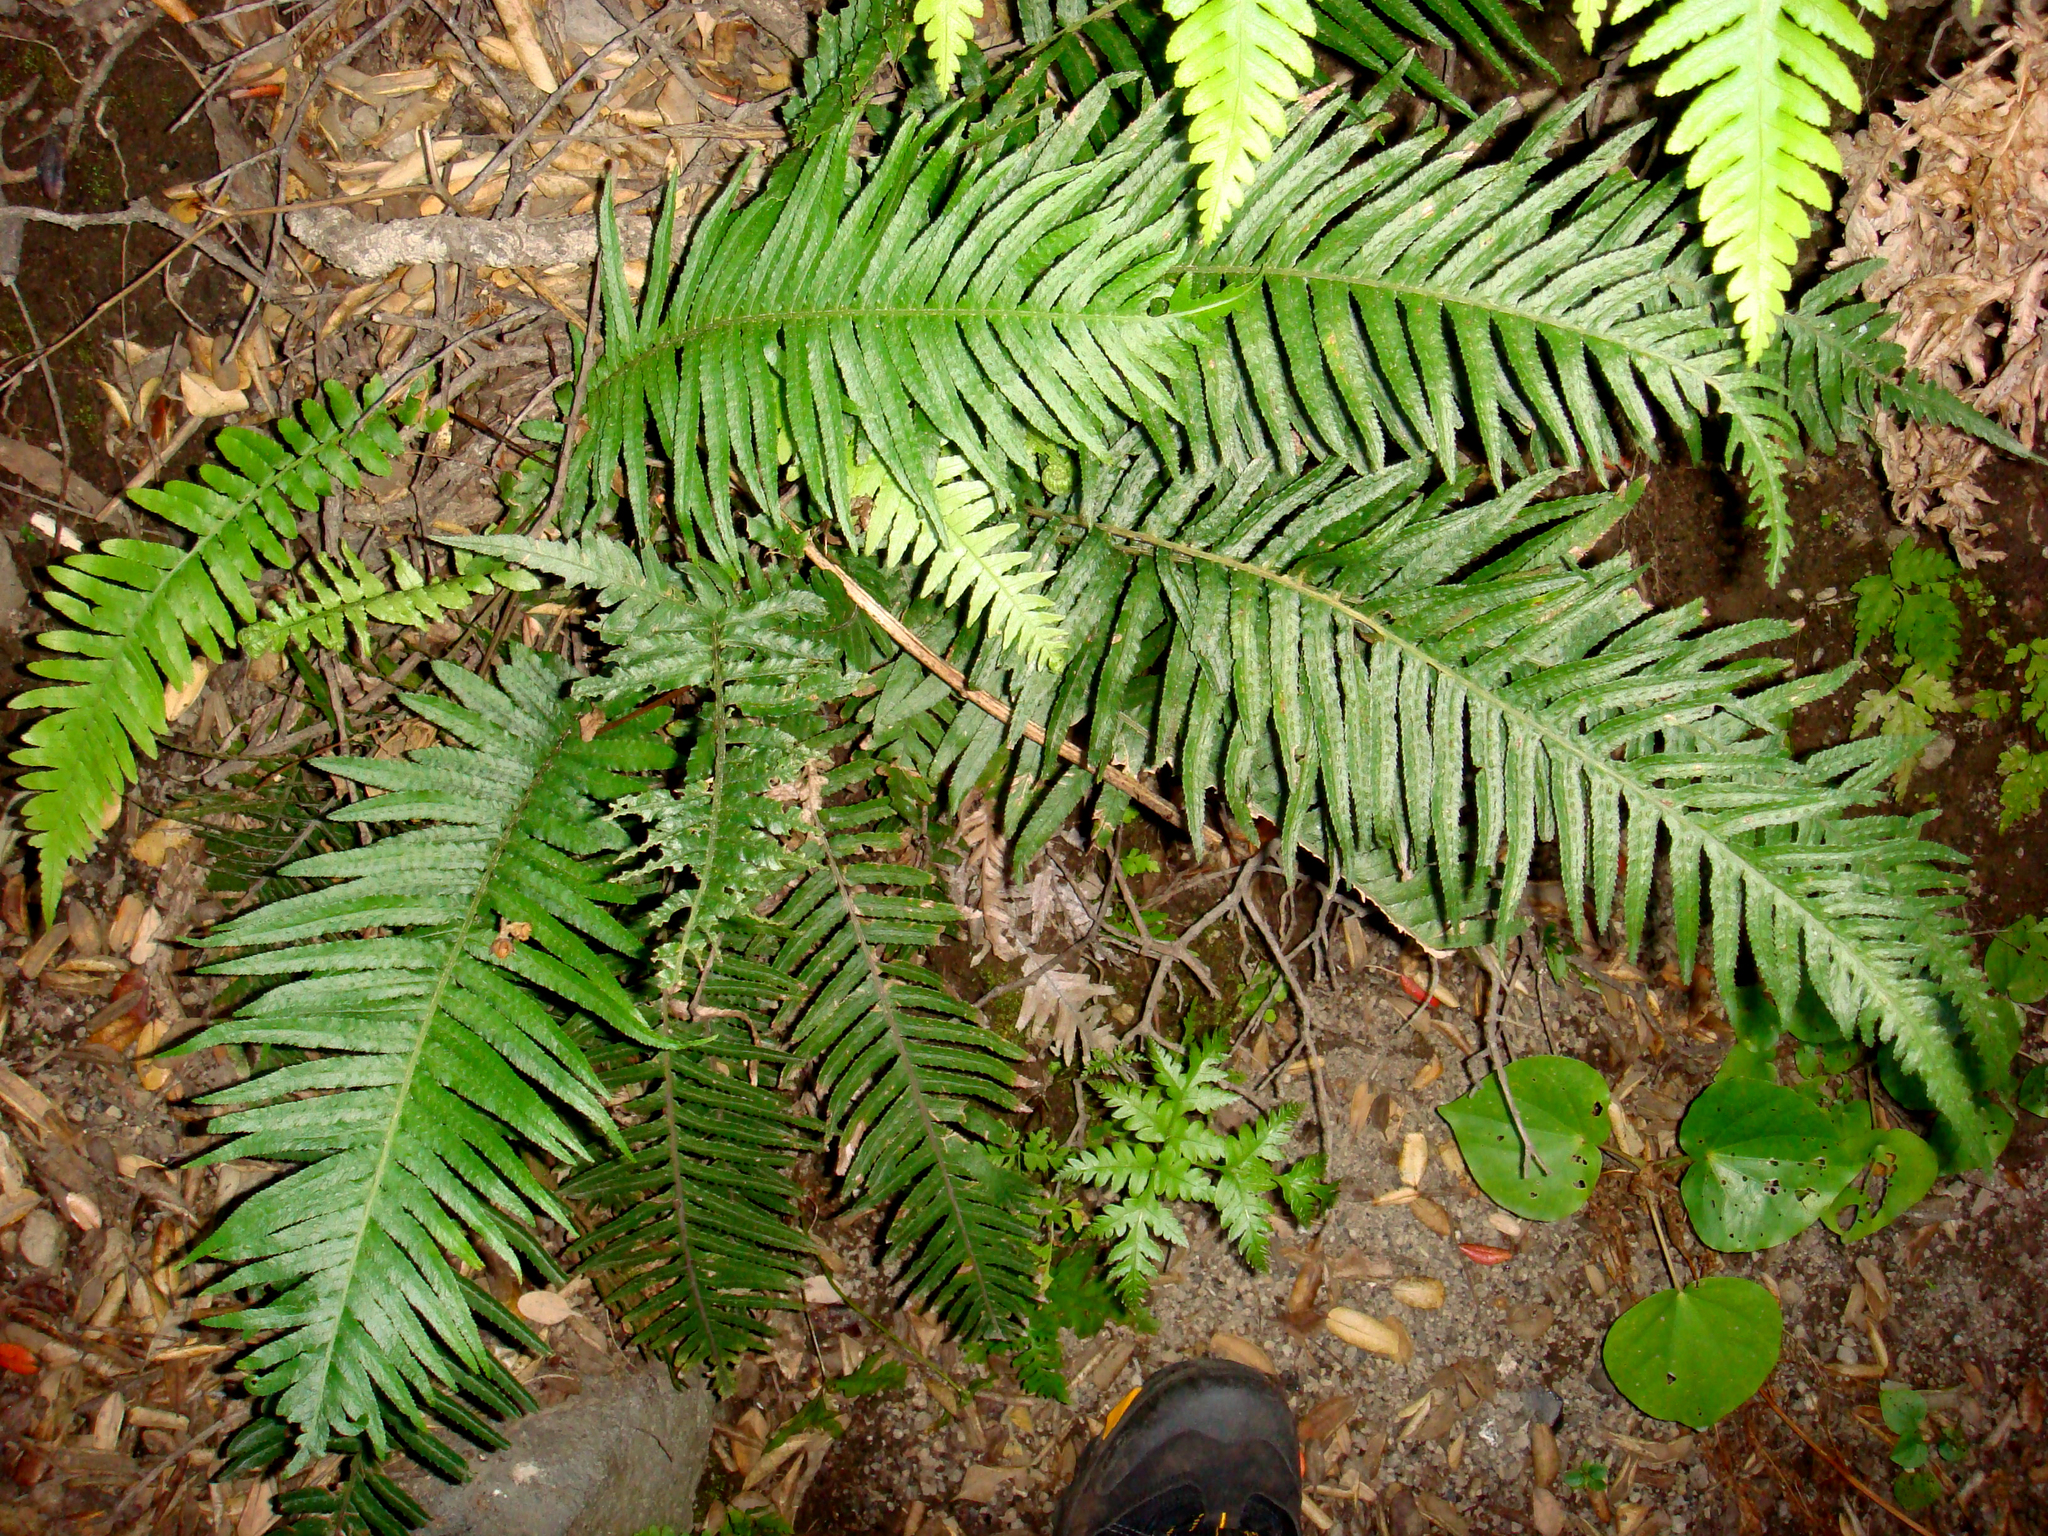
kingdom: Plantae
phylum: Tracheophyta
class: Polypodiopsida
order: Polypodiales
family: Blechnaceae
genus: Parablechnum
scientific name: Parablechnum milnei
